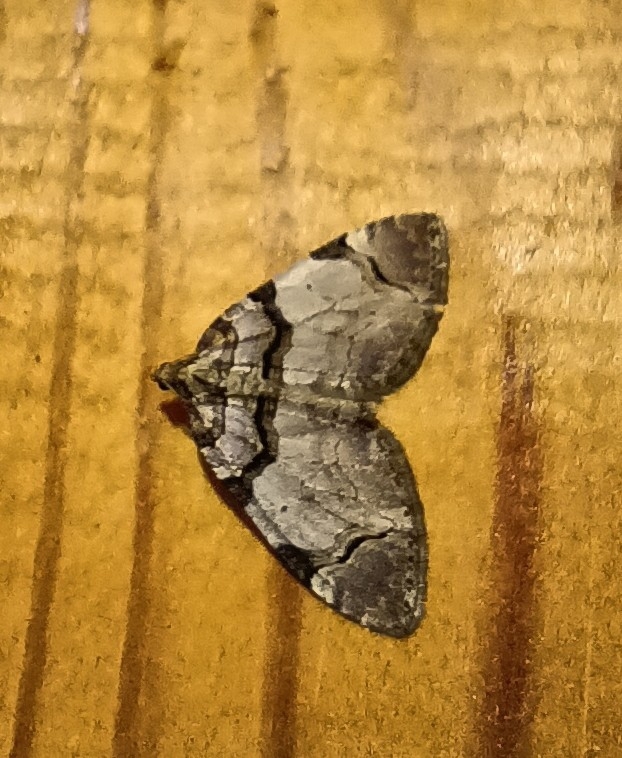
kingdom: Animalia
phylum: Arthropoda
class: Insecta
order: Lepidoptera
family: Geometridae
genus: Anticlea
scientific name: Anticlea derivata
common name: Streamer
